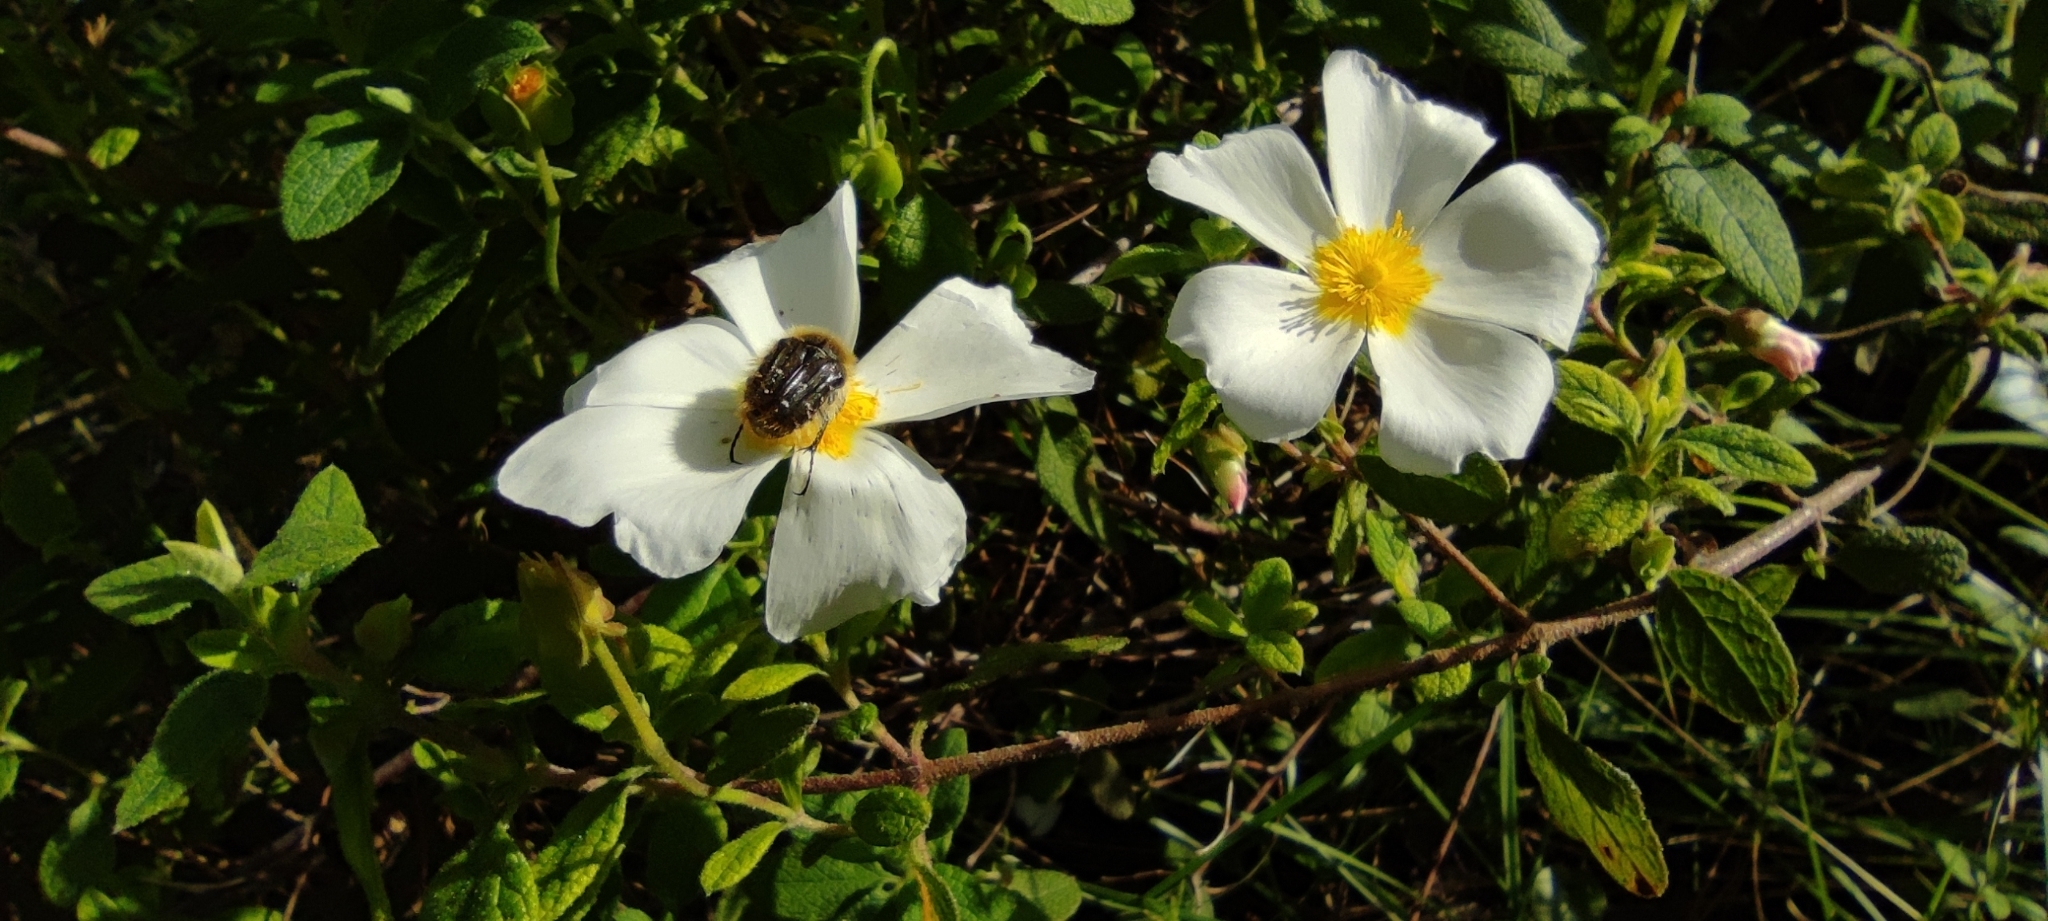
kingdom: Animalia
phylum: Arthropoda
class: Insecta
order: Coleoptera
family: Scarabaeidae
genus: Tropinota
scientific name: Tropinota squalida
